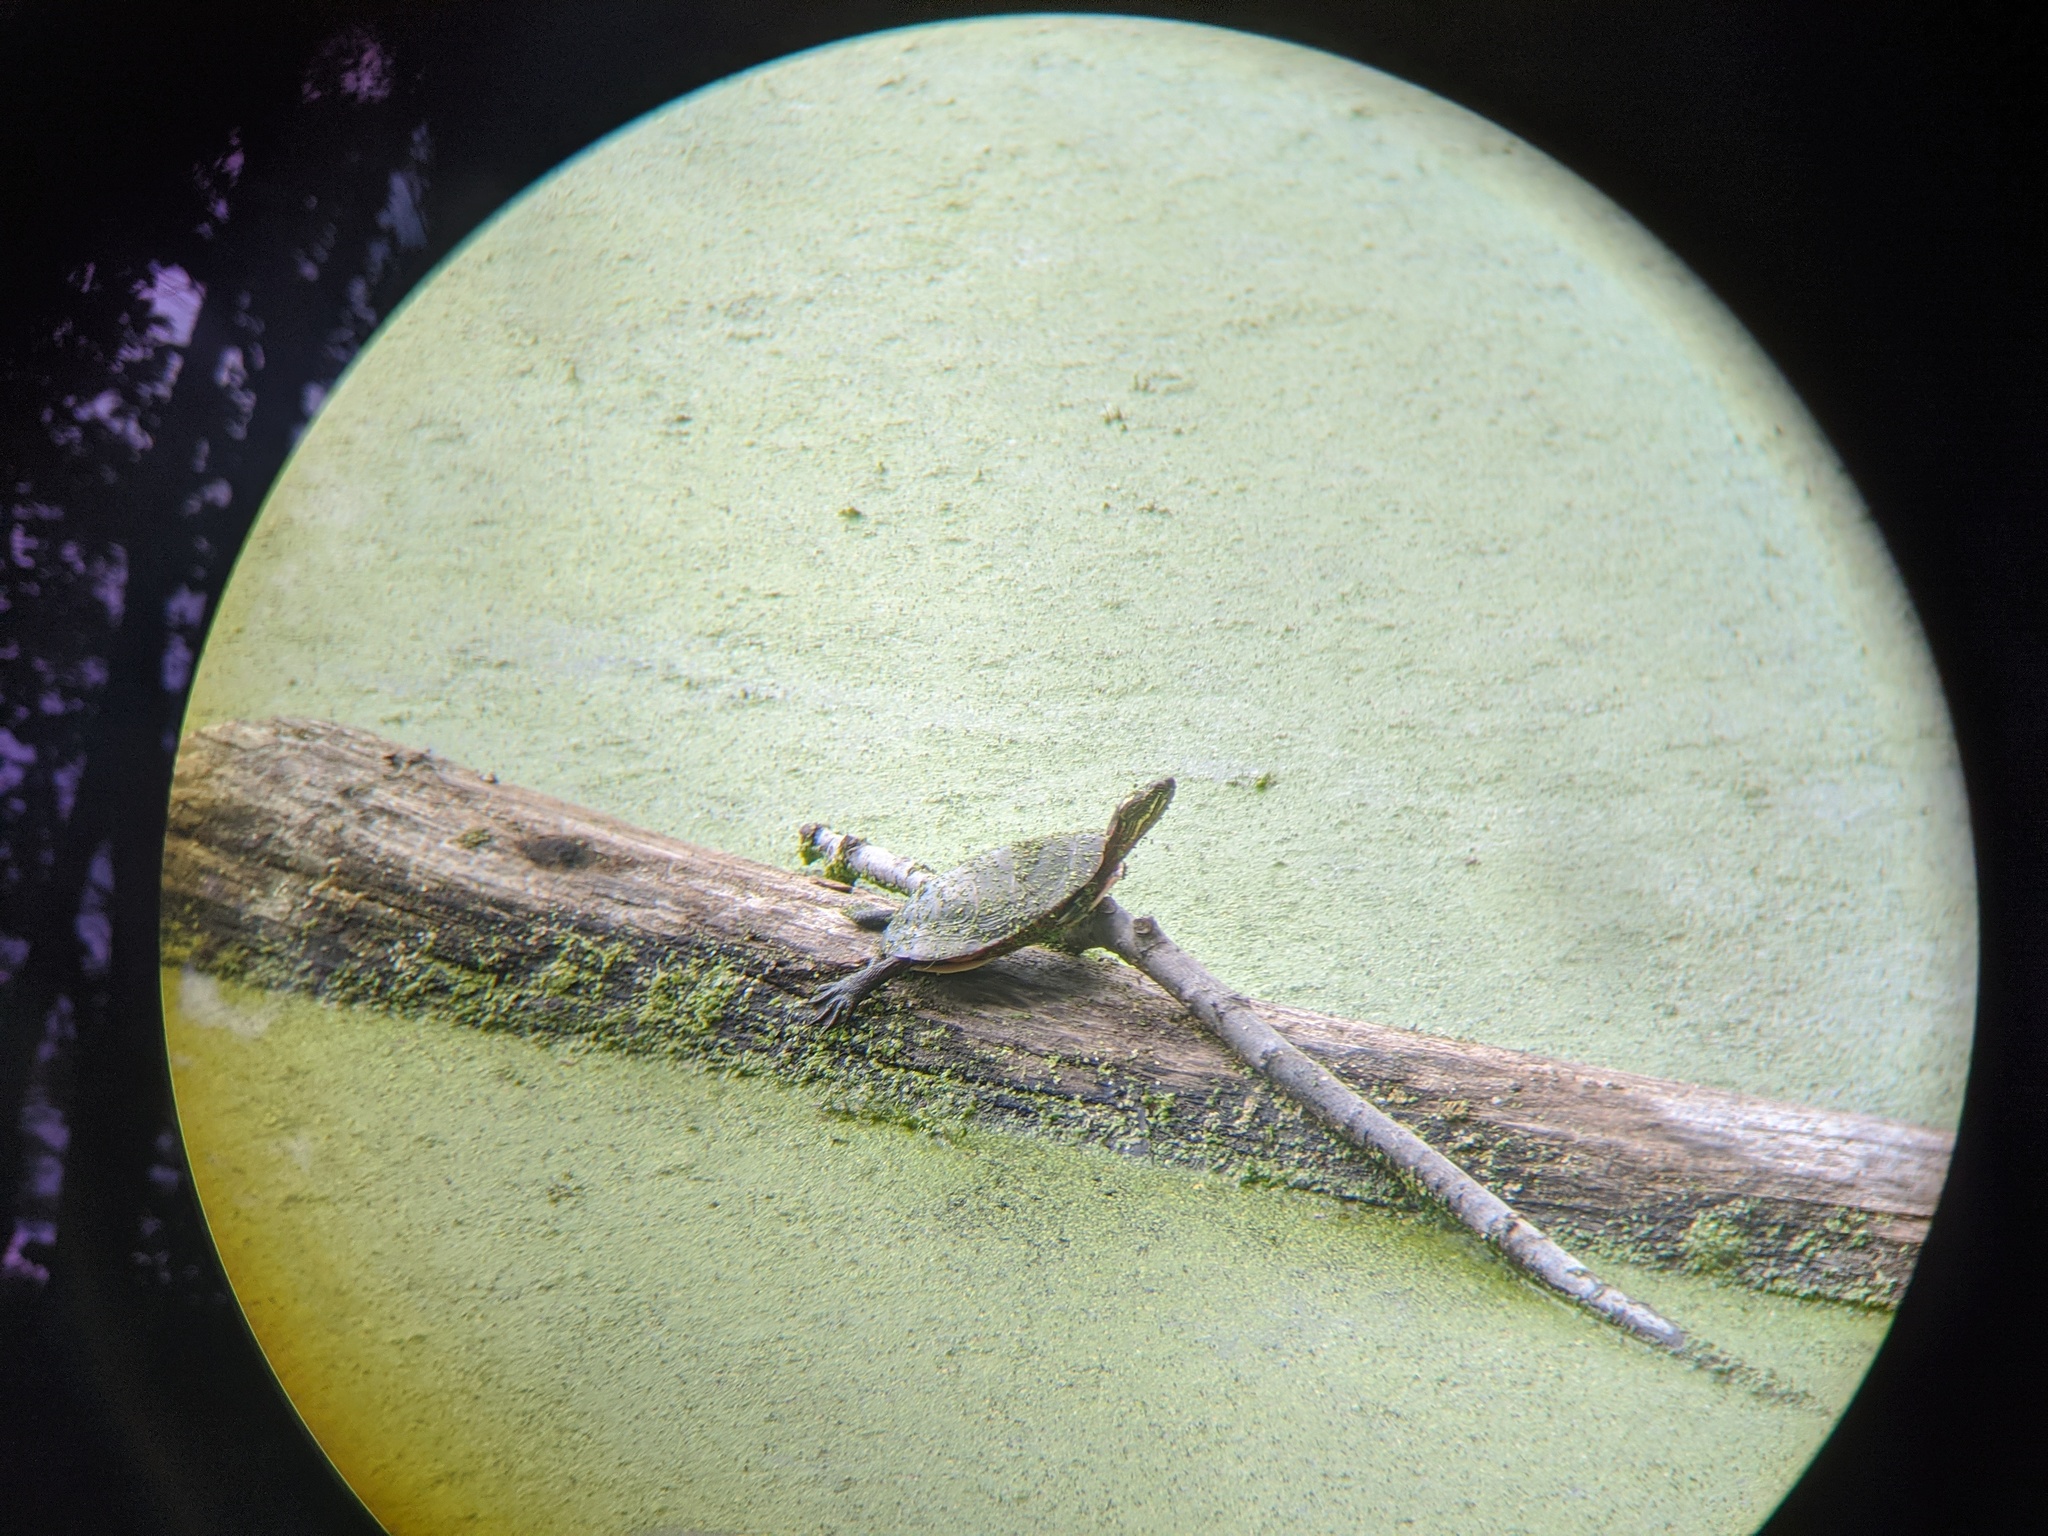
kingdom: Animalia
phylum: Chordata
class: Testudines
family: Emydidae
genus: Chrysemys
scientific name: Chrysemys picta
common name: Painted turtle
